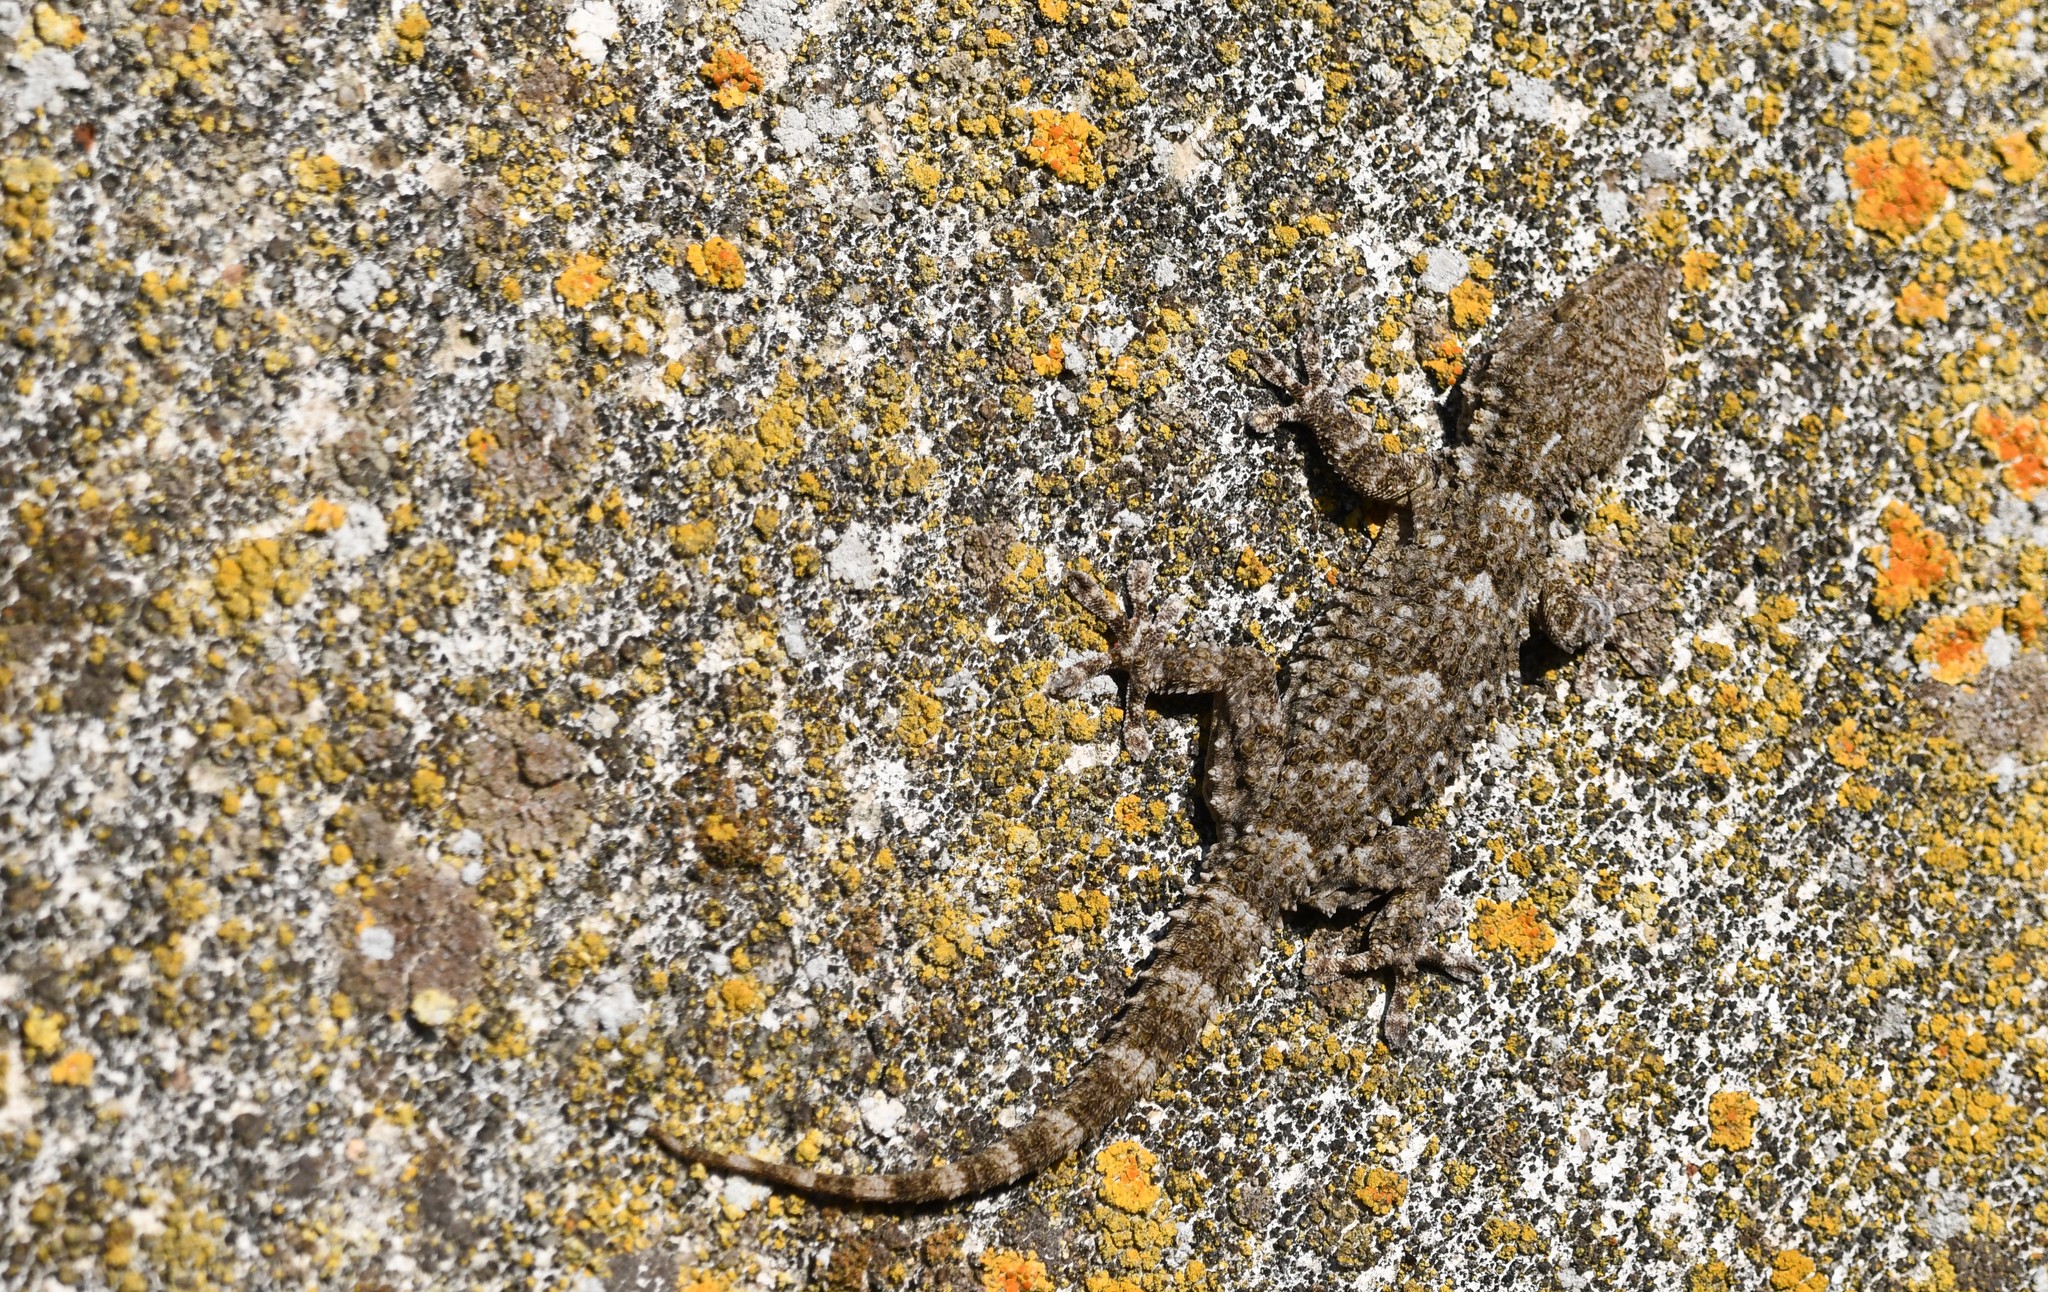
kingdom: Animalia
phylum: Chordata
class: Squamata
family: Phyllodactylidae
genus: Tarentola
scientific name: Tarentola mauritanica
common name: Moorish gecko
